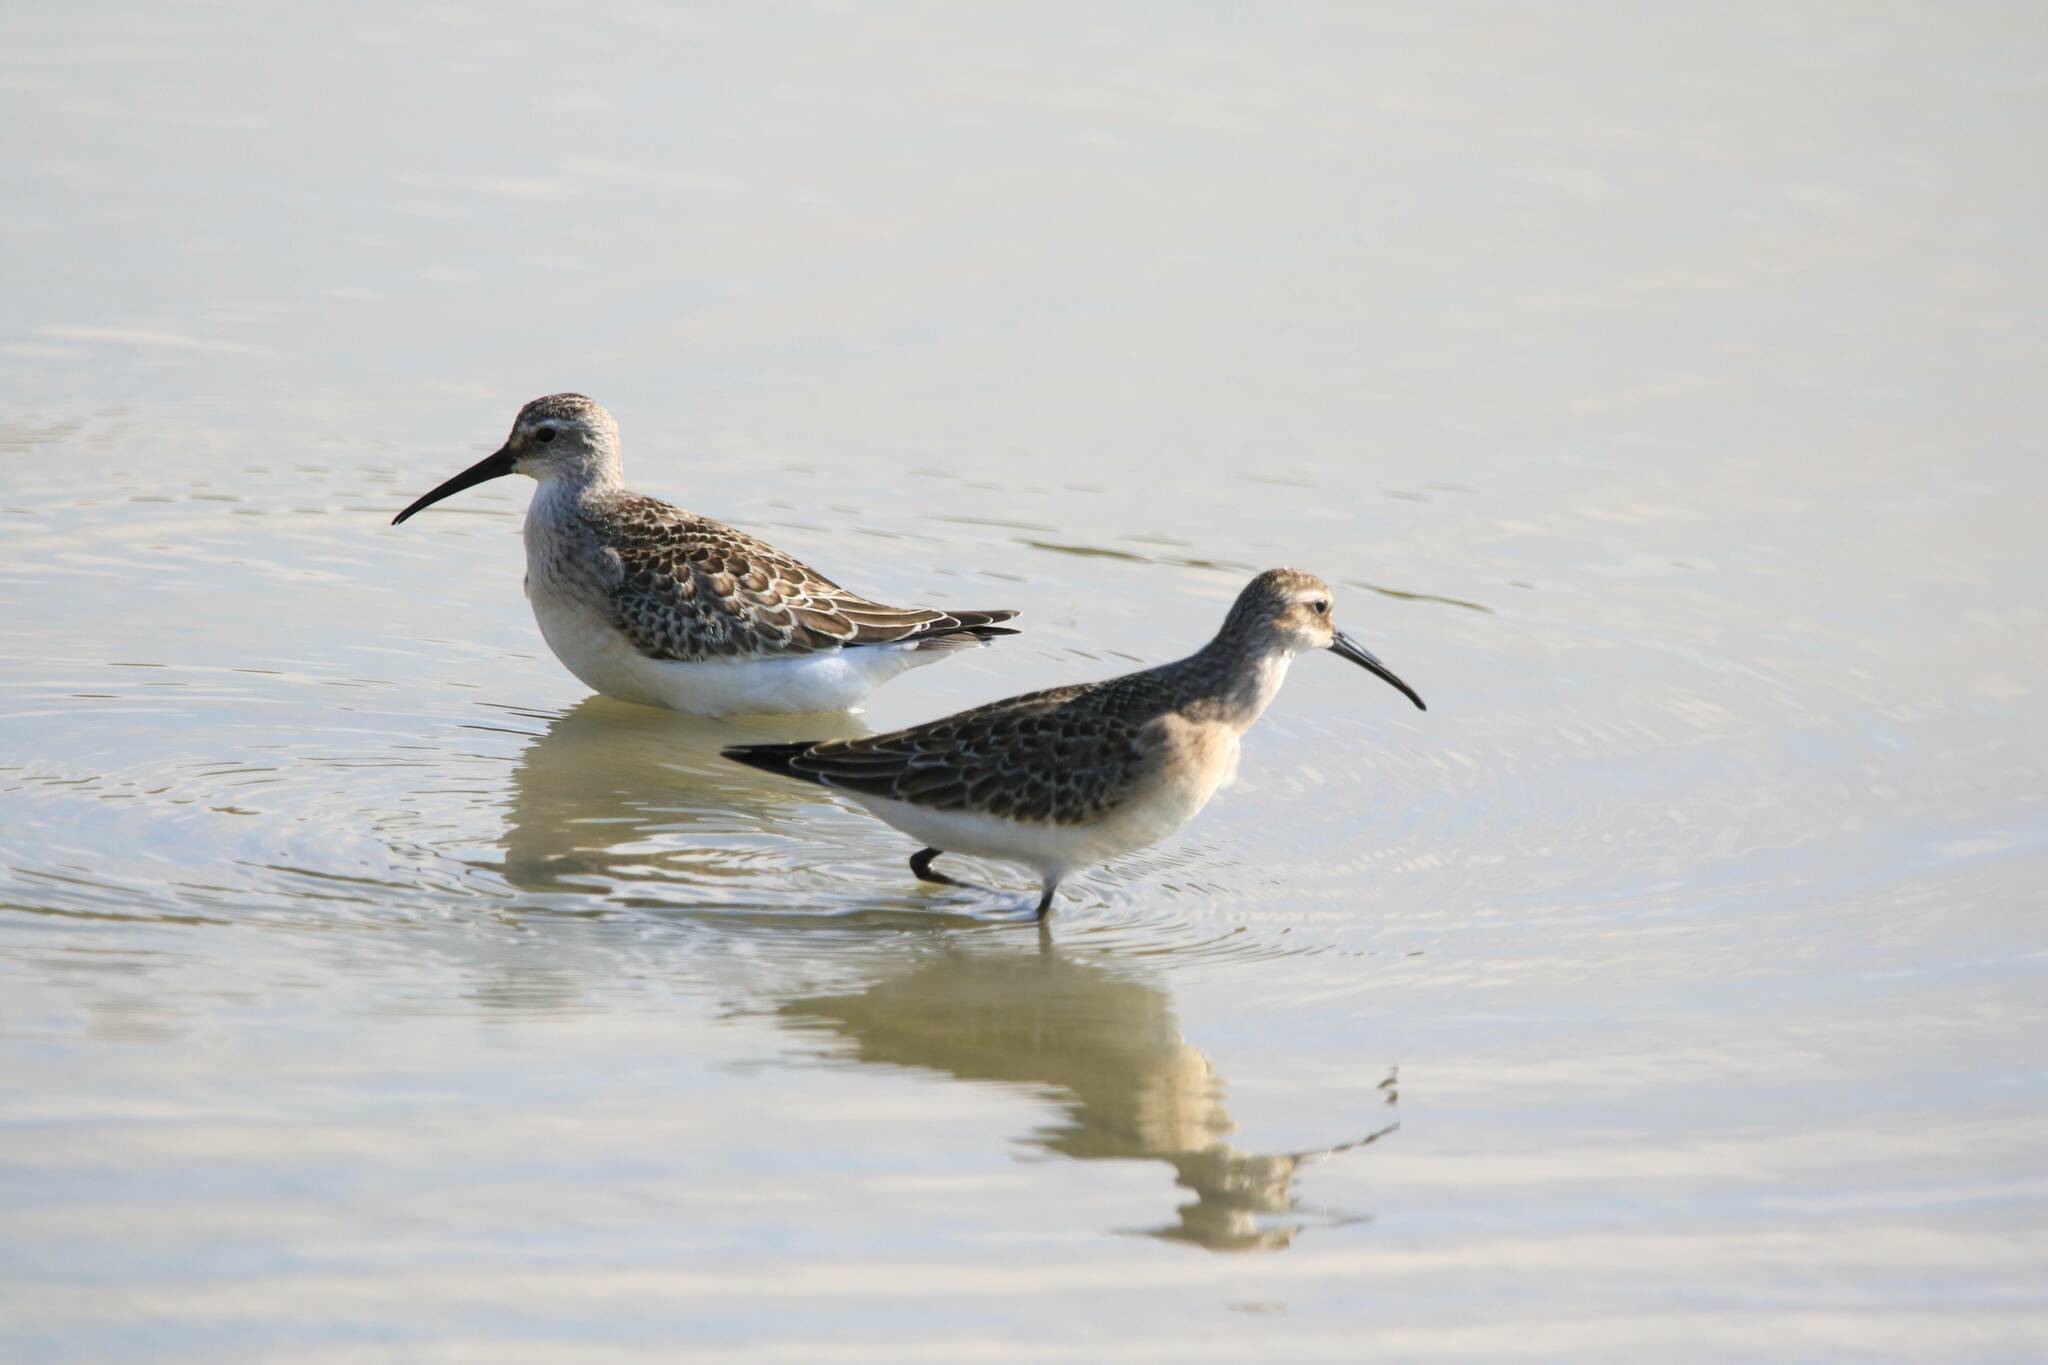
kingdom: Animalia
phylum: Chordata
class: Aves
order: Charadriiformes
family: Scolopacidae
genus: Calidris
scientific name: Calidris ferruginea
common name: Curlew sandpiper
